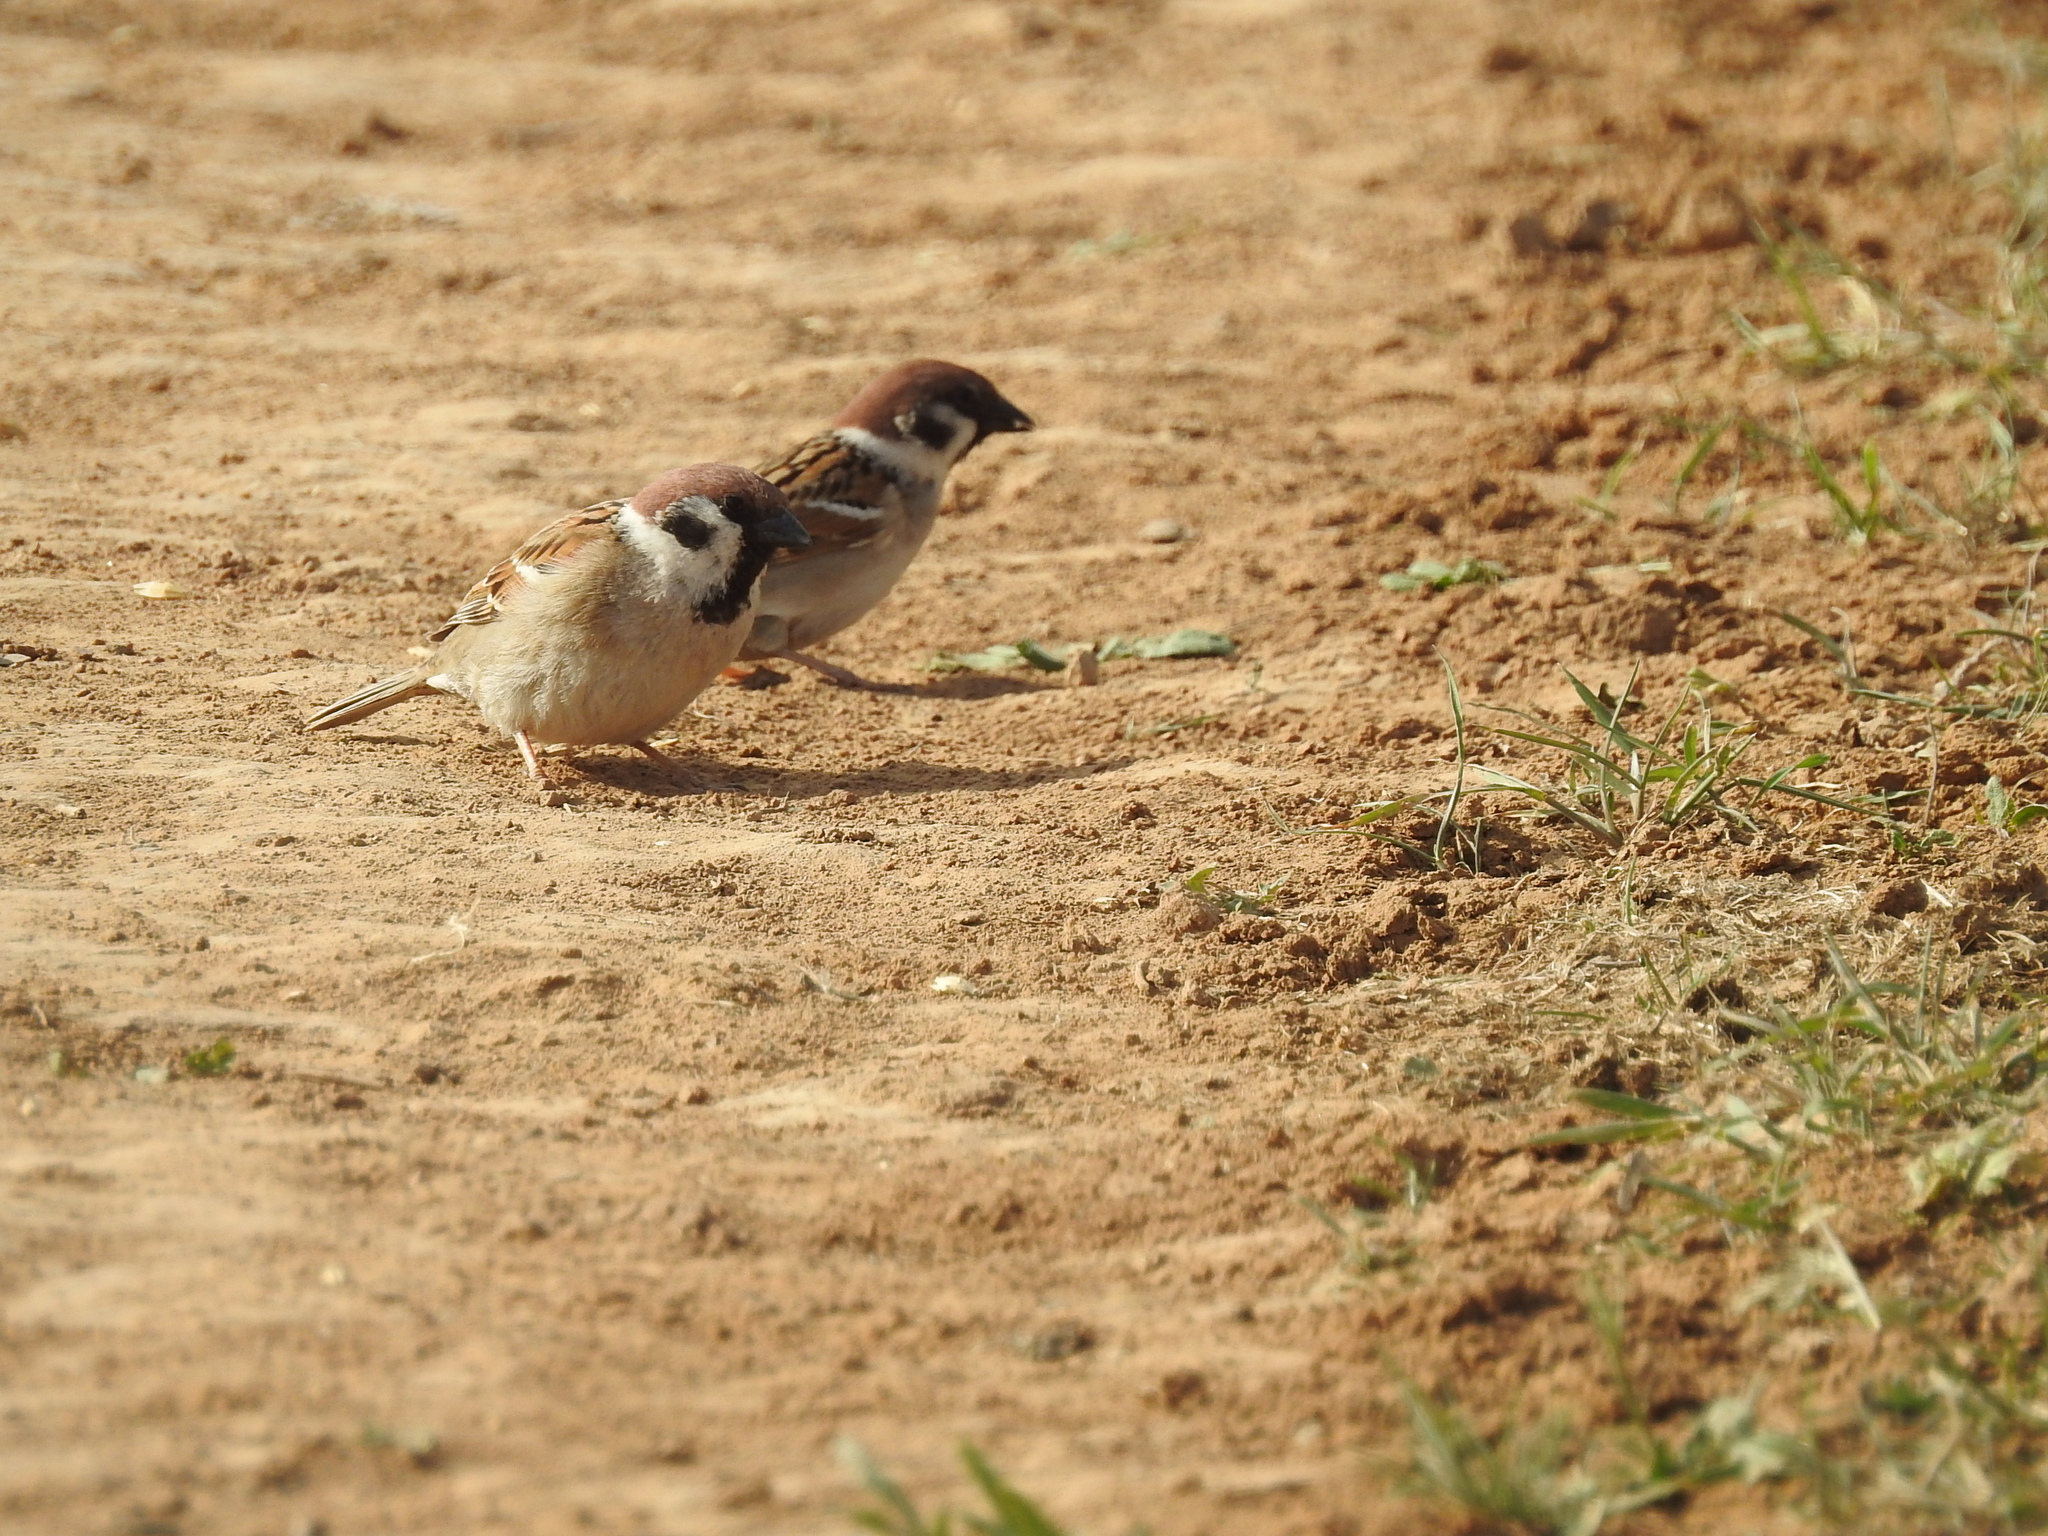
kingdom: Animalia
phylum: Chordata
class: Aves
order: Passeriformes
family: Passeridae
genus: Passer
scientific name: Passer montanus
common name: Eurasian tree sparrow
